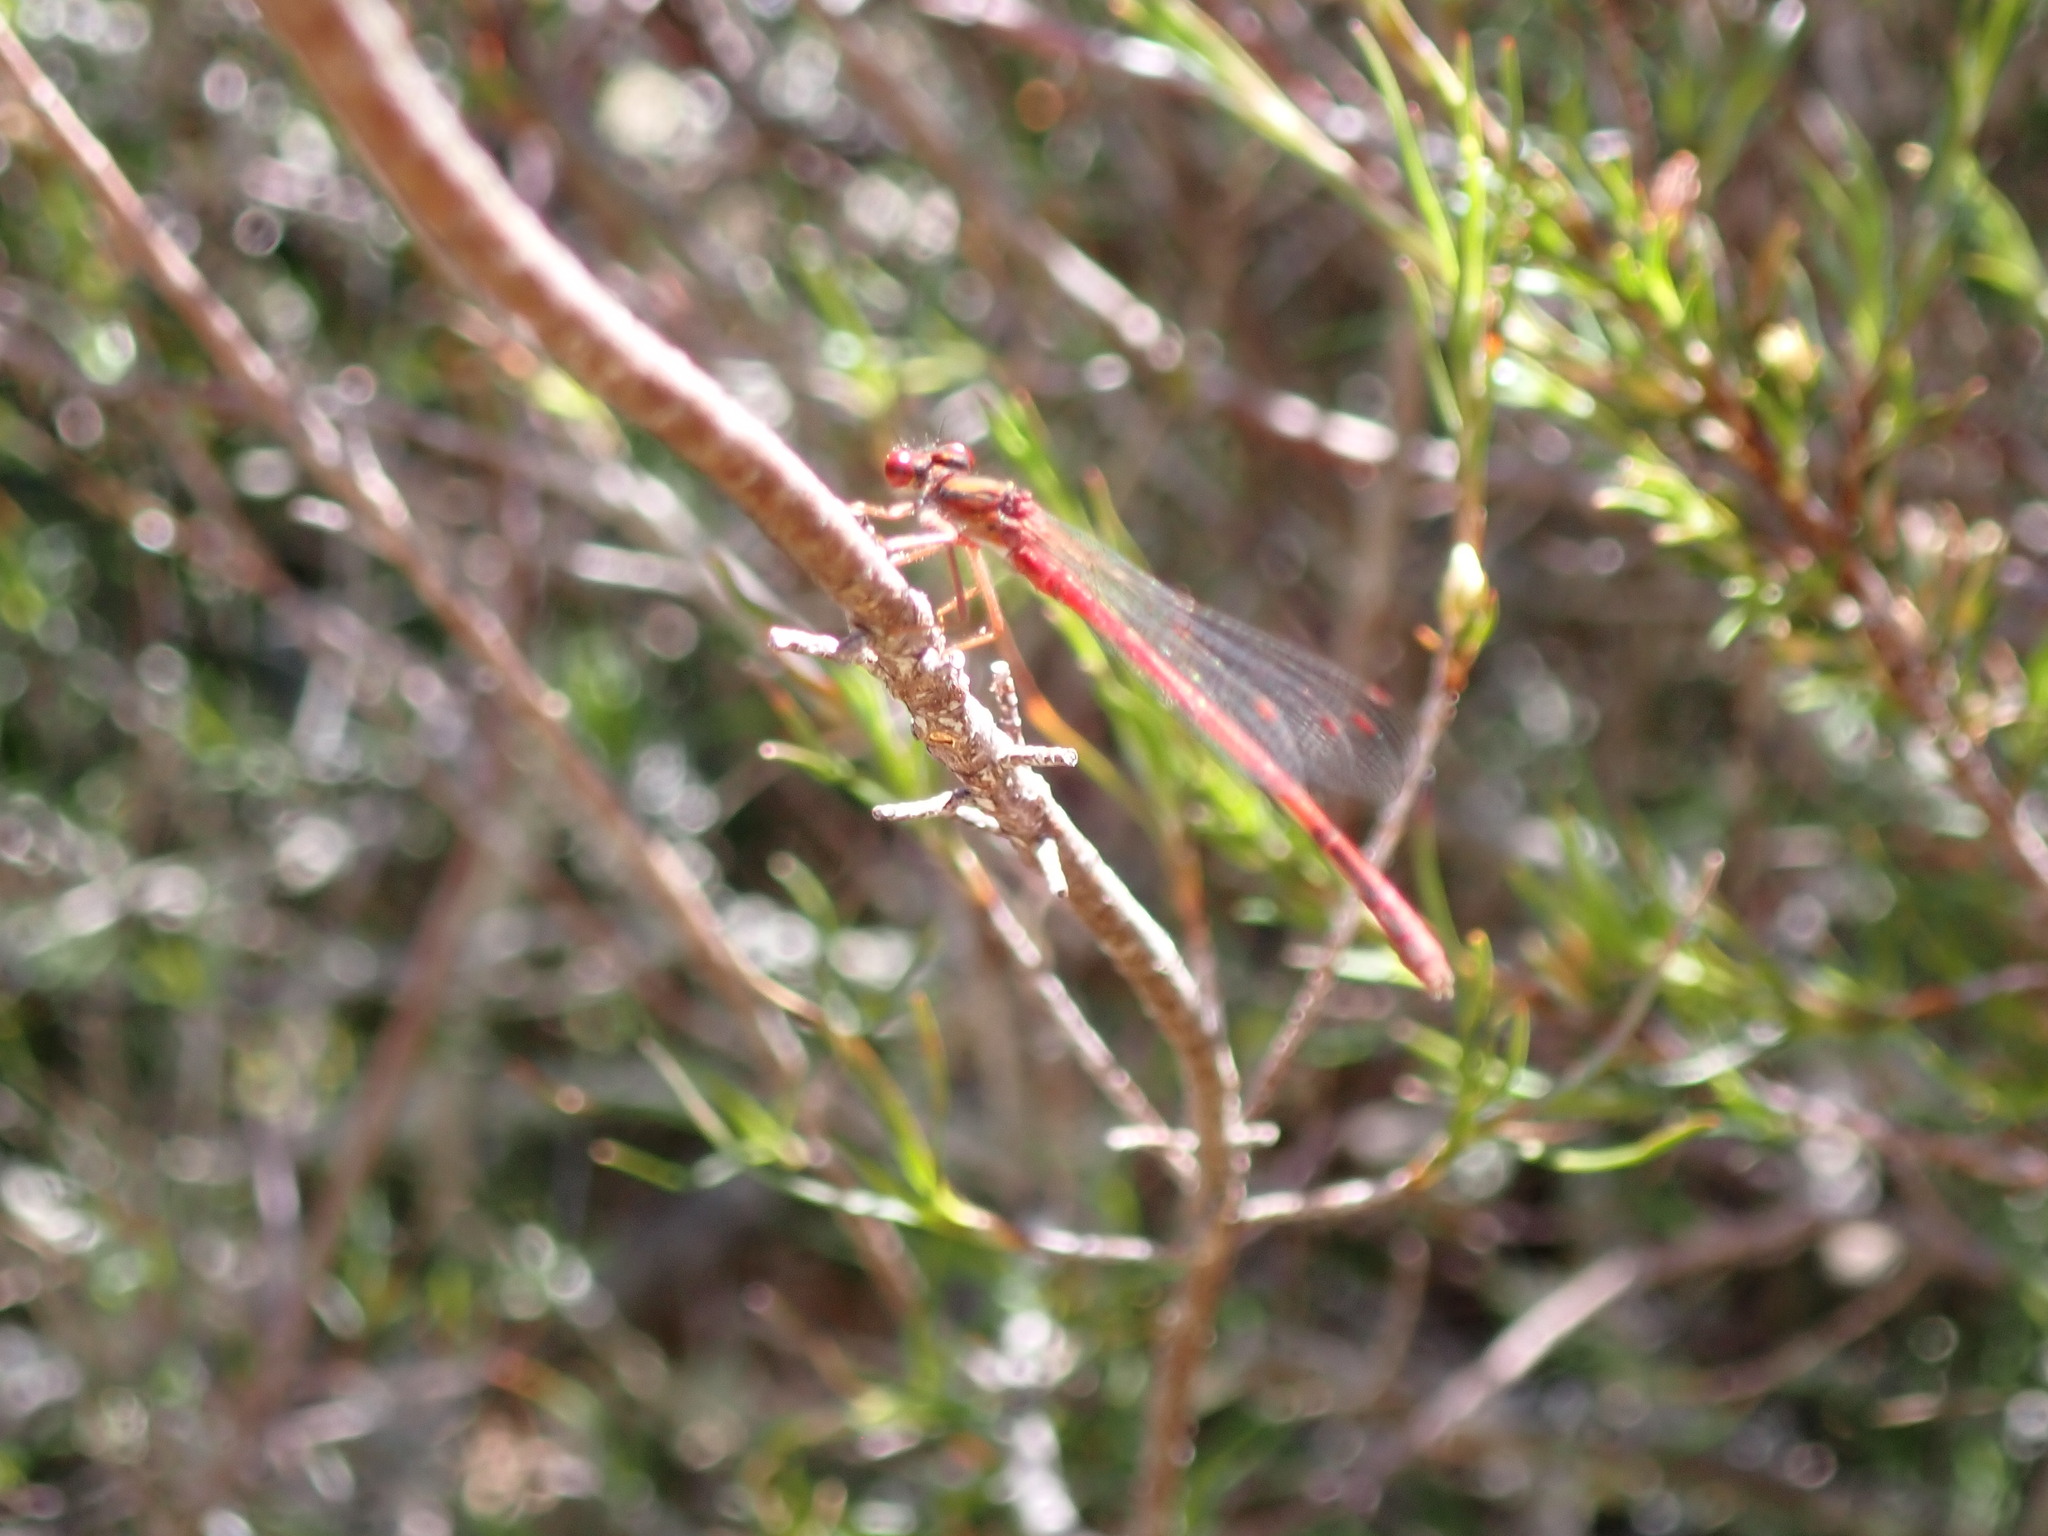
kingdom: Animalia
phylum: Arthropoda
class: Insecta
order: Odonata
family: Coenagrionidae
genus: Xanthocnemis
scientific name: Xanthocnemis zealandica
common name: Common redcoat damselfly
